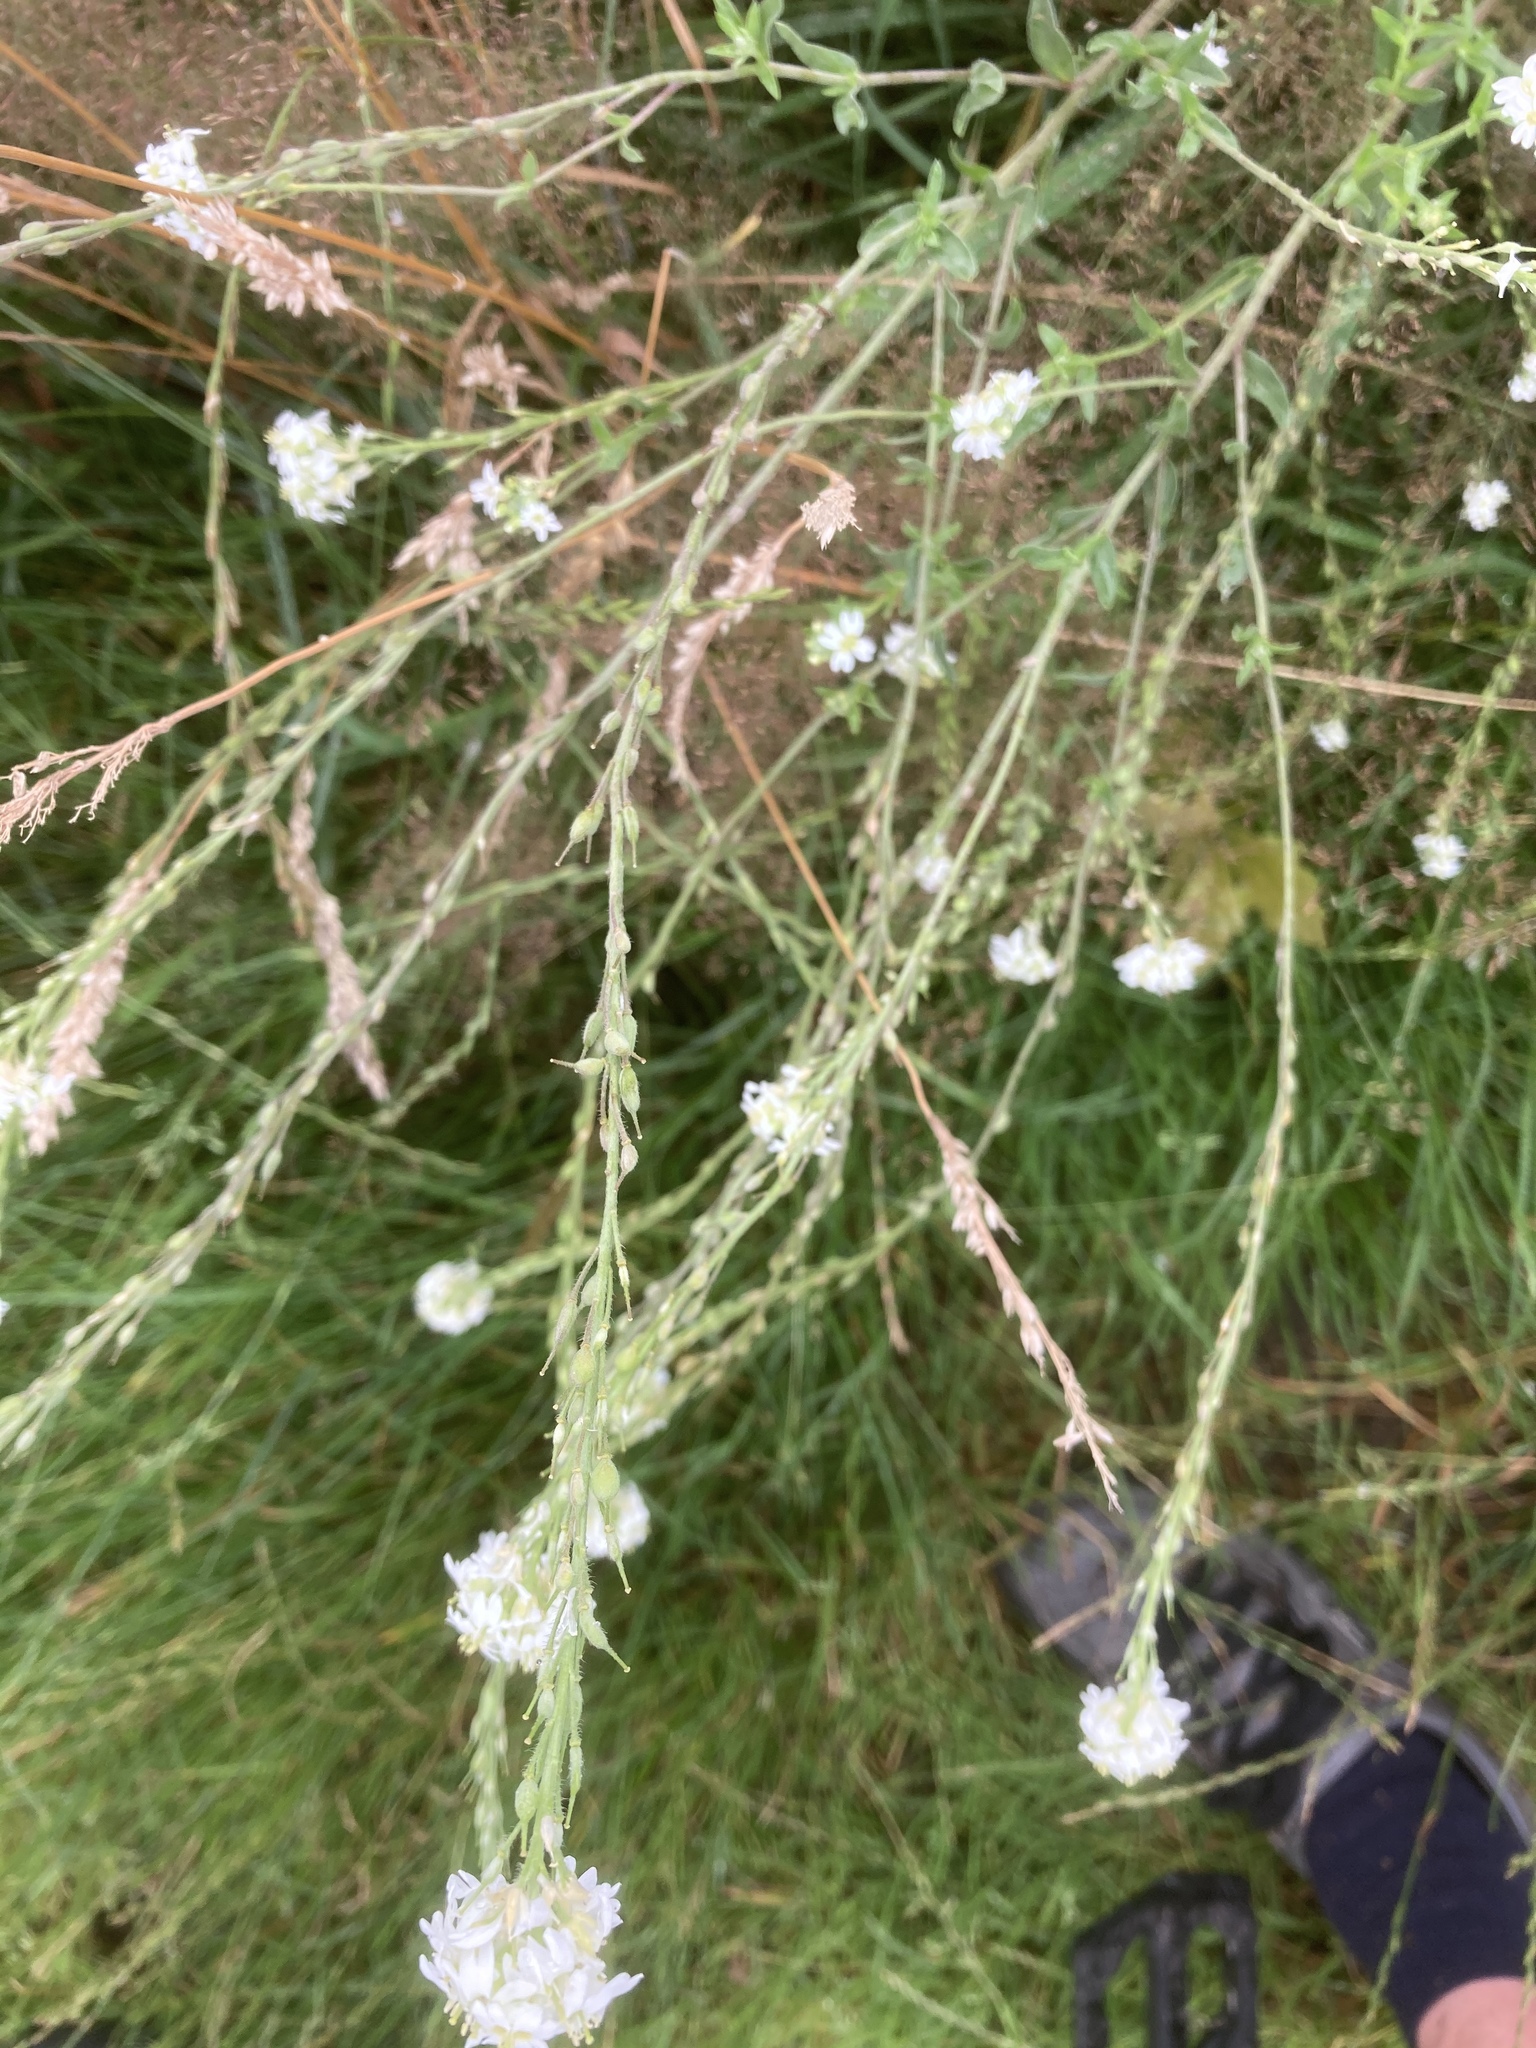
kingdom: Plantae
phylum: Tracheophyta
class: Magnoliopsida
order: Brassicales
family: Brassicaceae
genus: Berteroa
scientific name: Berteroa incana
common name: Hoary alison
